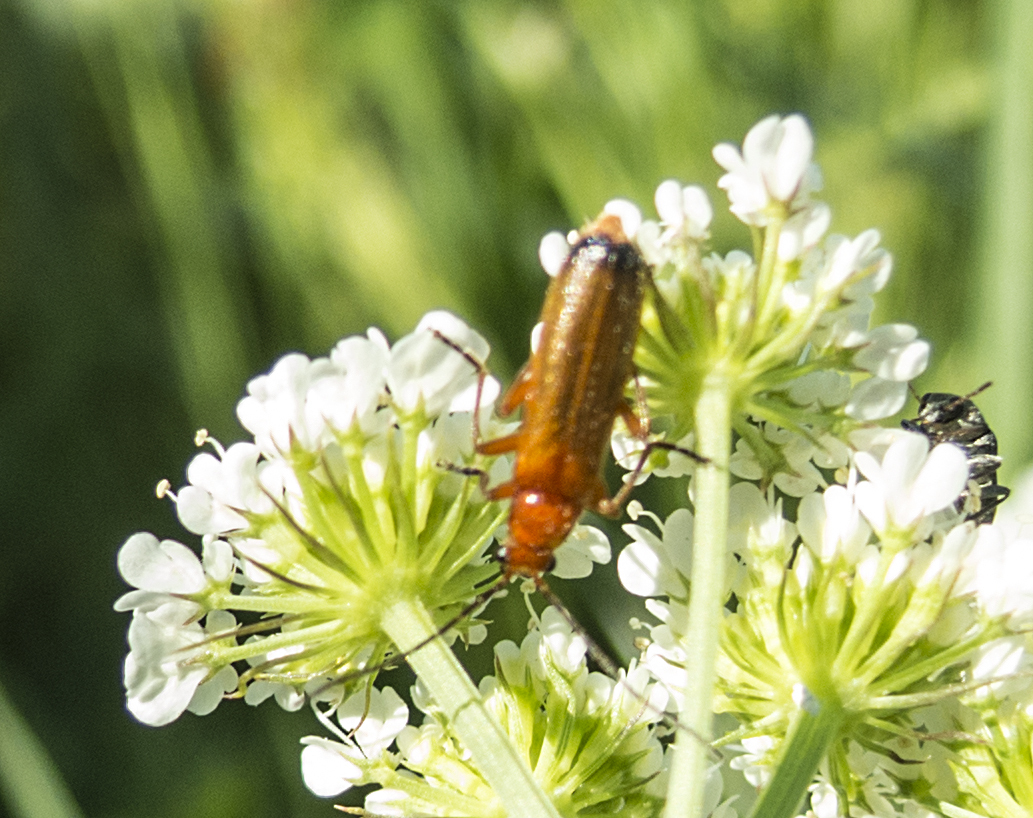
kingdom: Animalia
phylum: Arthropoda
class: Insecta
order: Coleoptera
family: Cantharidae
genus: Rhagonycha
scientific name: Rhagonycha fulva
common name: Common red soldier beetle
